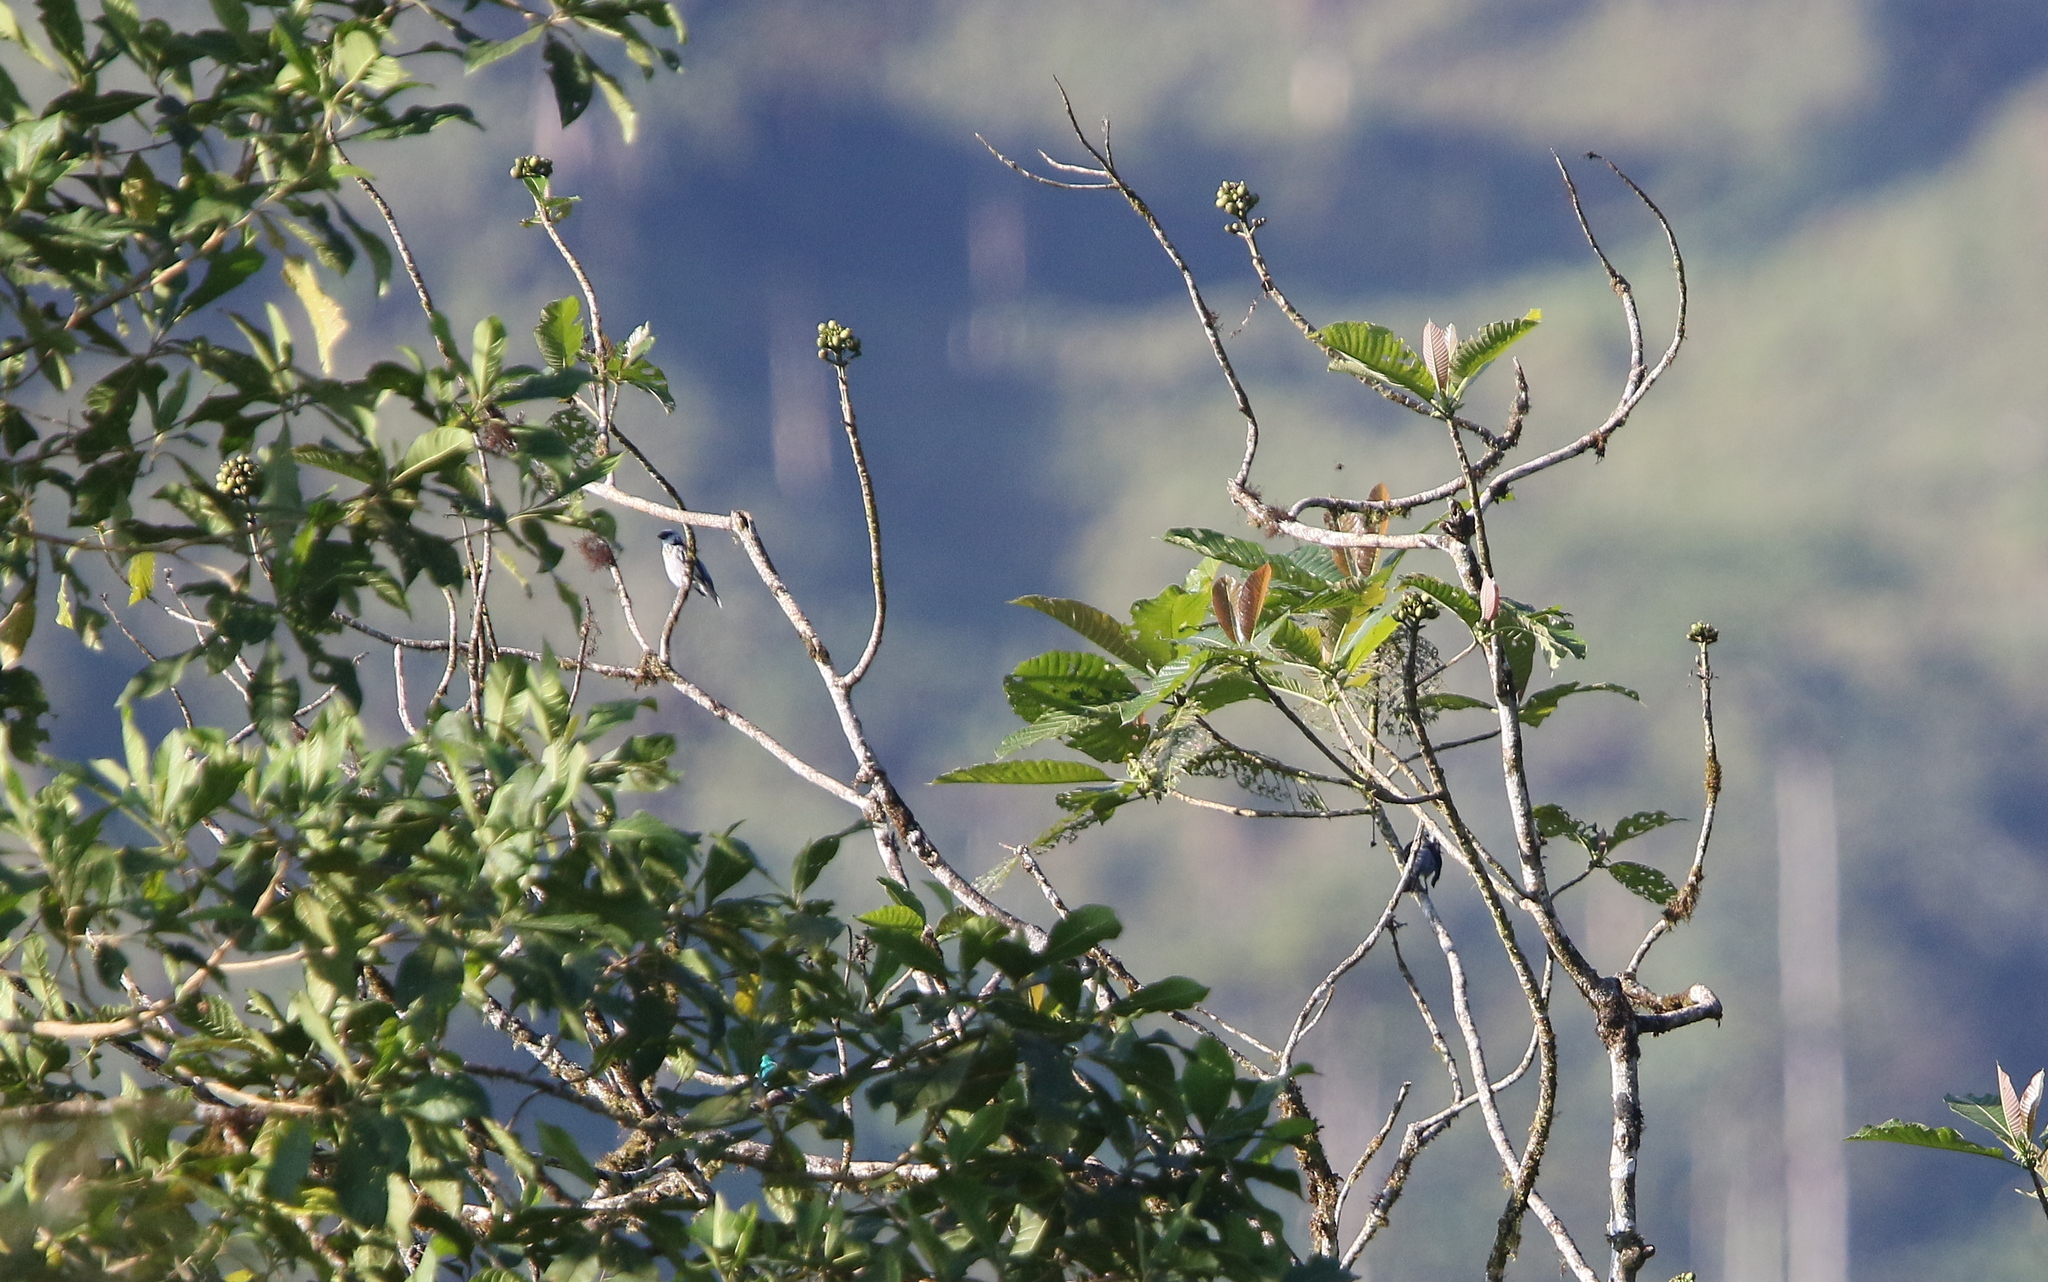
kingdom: Animalia
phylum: Chordata
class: Aves
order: Passeriformes
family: Thraupidae
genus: Poecilostreptus
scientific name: Poecilostreptus palmeri
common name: Grey-and-gold tanager
